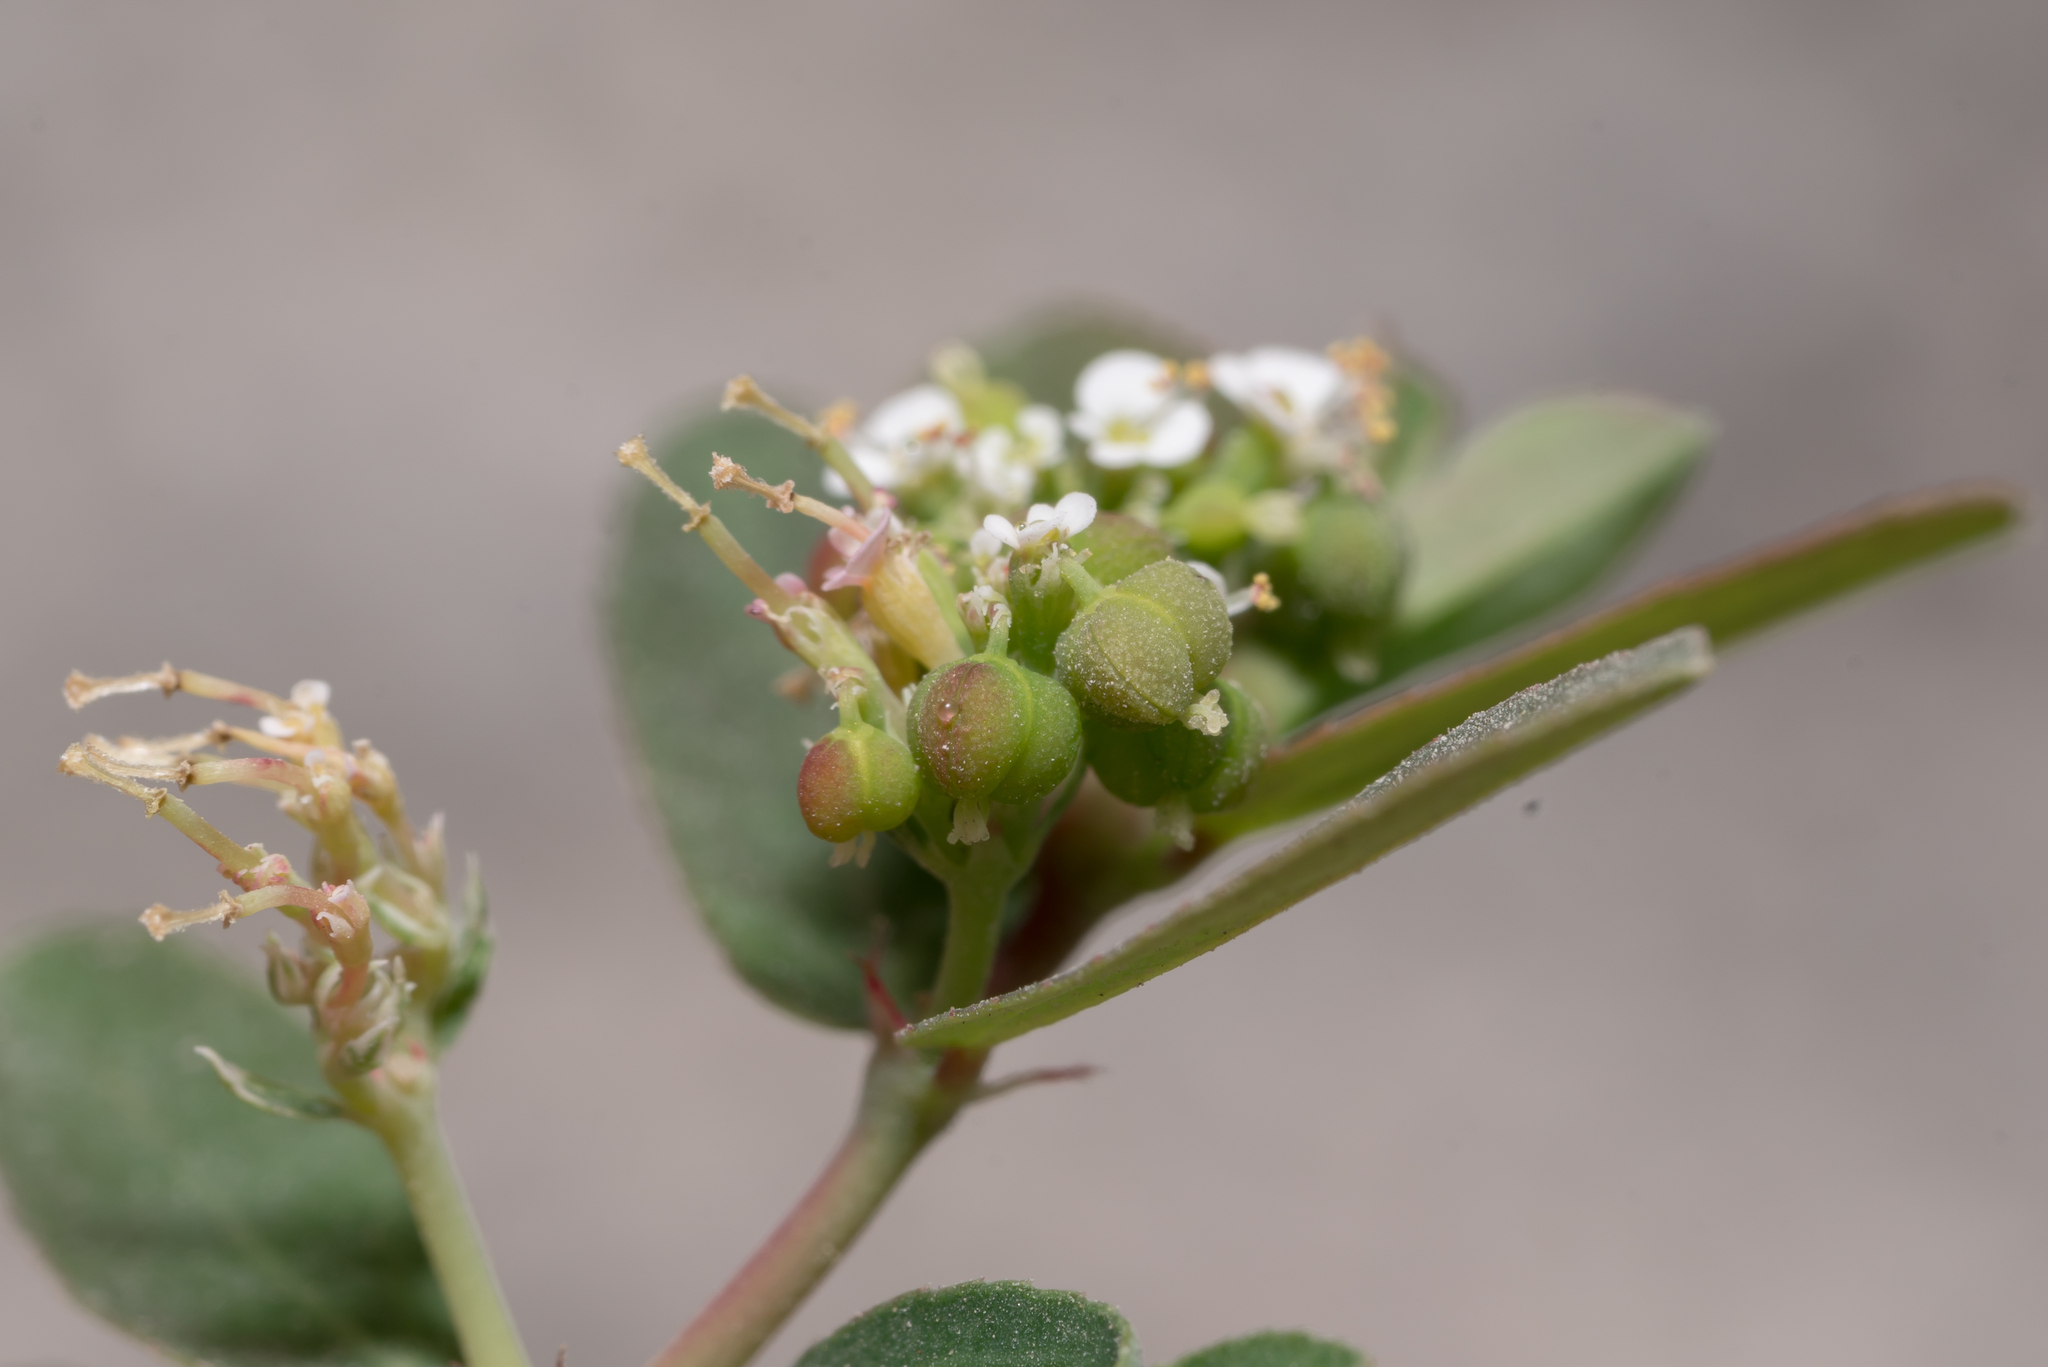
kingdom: Plantae
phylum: Tracheophyta
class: Magnoliopsida
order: Malpighiales
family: Euphorbiaceae
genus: Euphorbia
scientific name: Euphorbia hypericifolia
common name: Graceful sandmat
